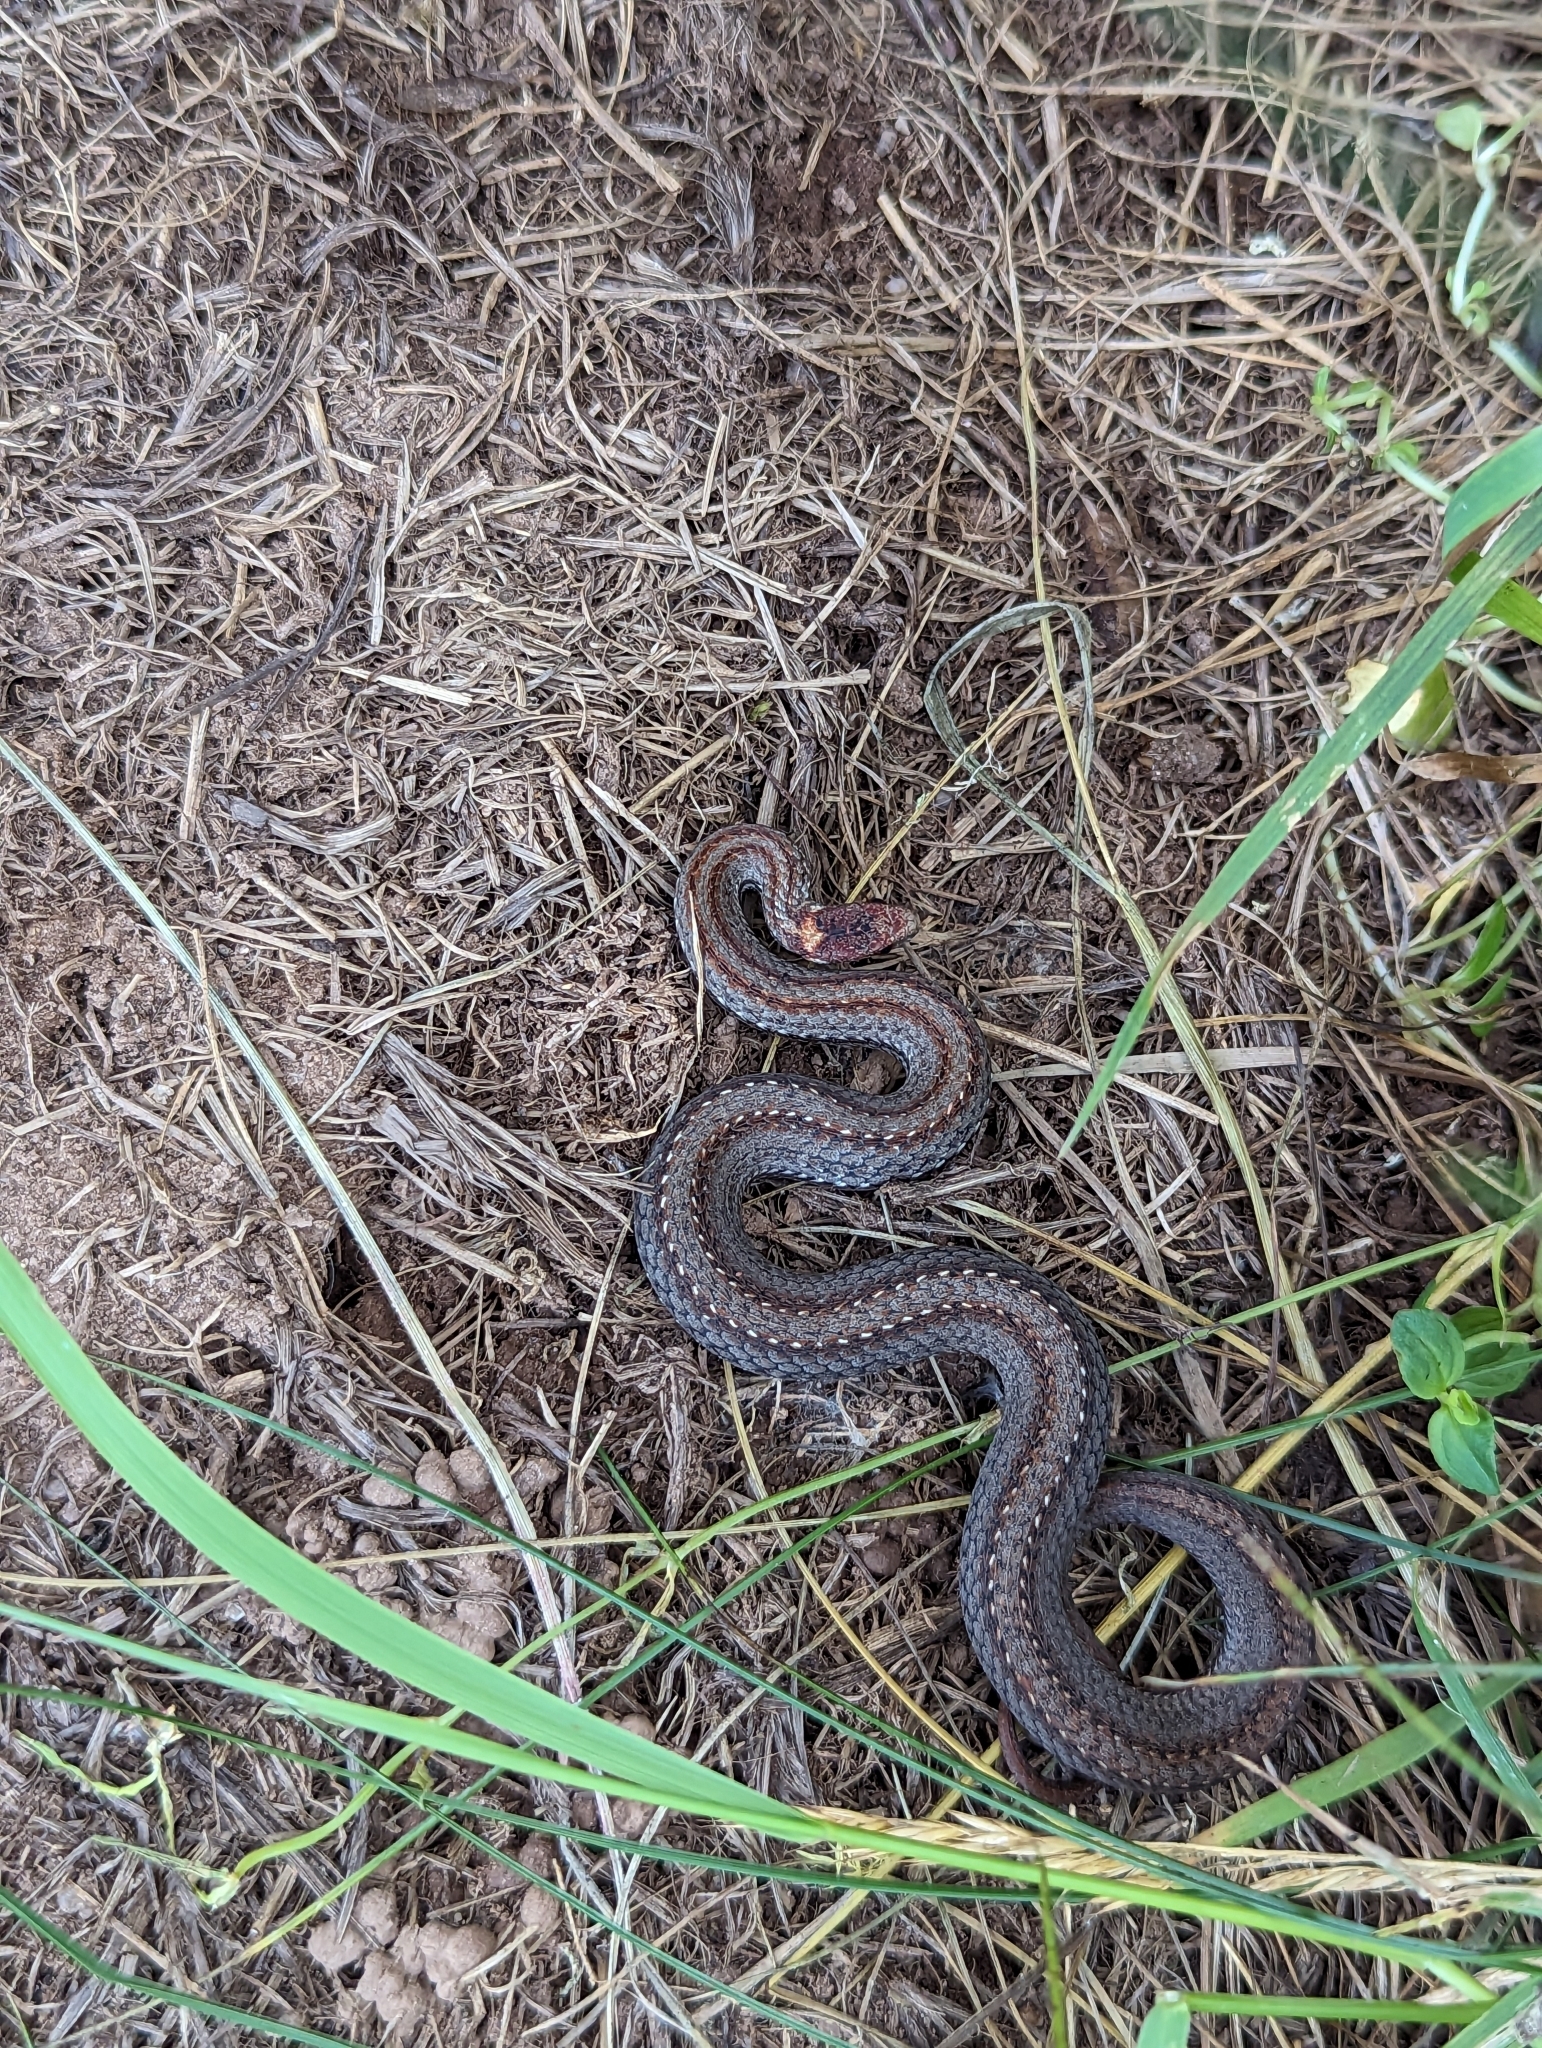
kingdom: Animalia
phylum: Chordata
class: Squamata
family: Colubridae
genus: Storeria
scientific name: Storeria occipitomaculata
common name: Redbelly snake
